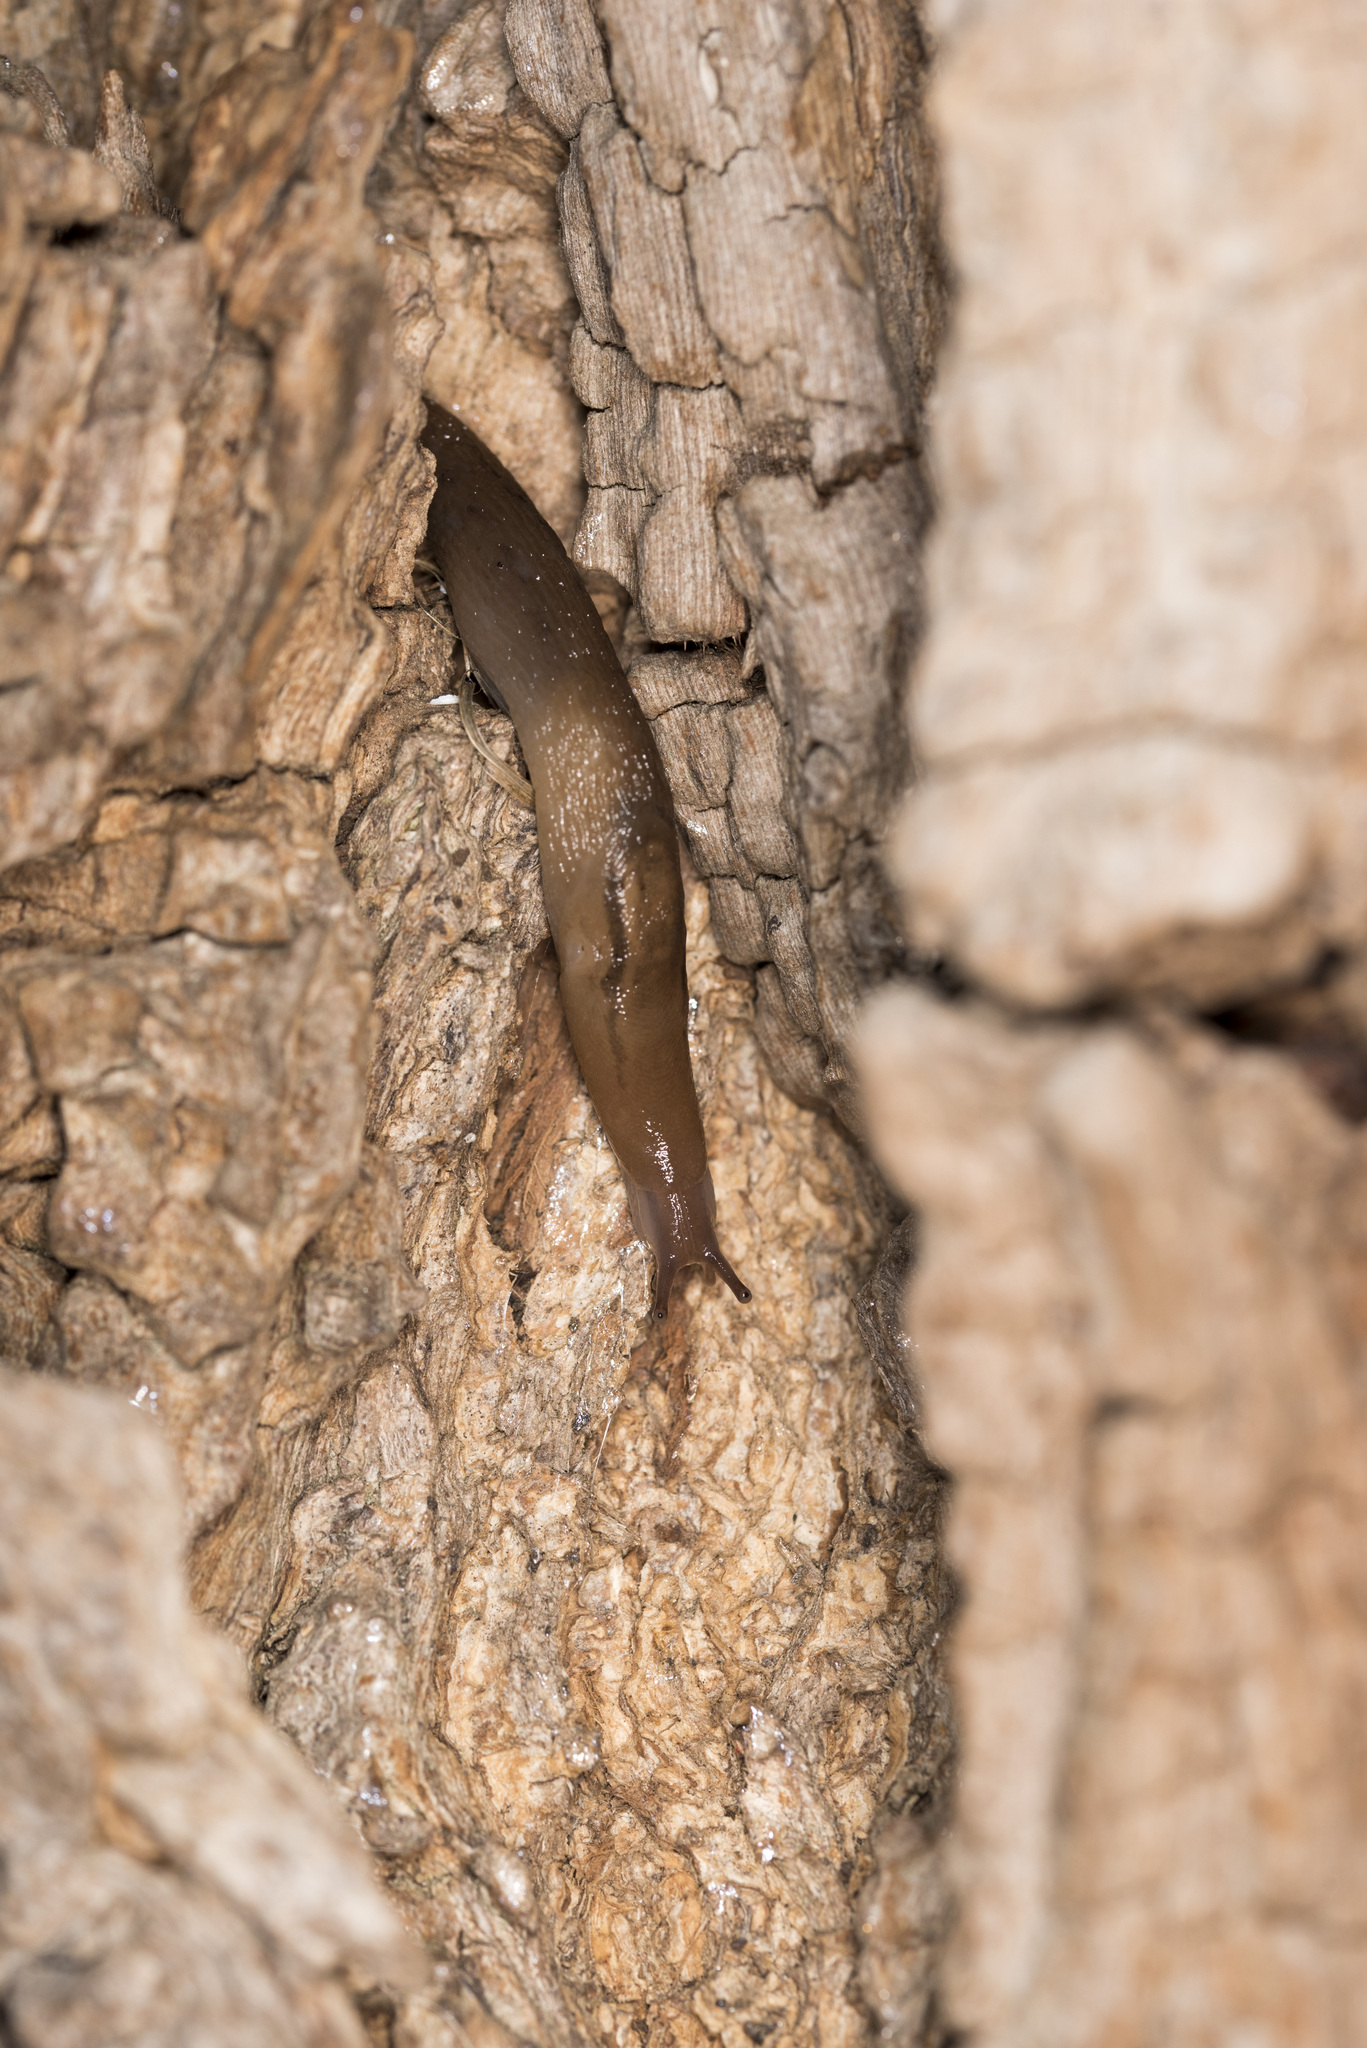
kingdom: Animalia
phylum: Mollusca
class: Gastropoda
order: Stylommatophora
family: Limacidae
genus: Ambigolimax
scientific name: Ambigolimax valentianus
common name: Greenhouse slug
